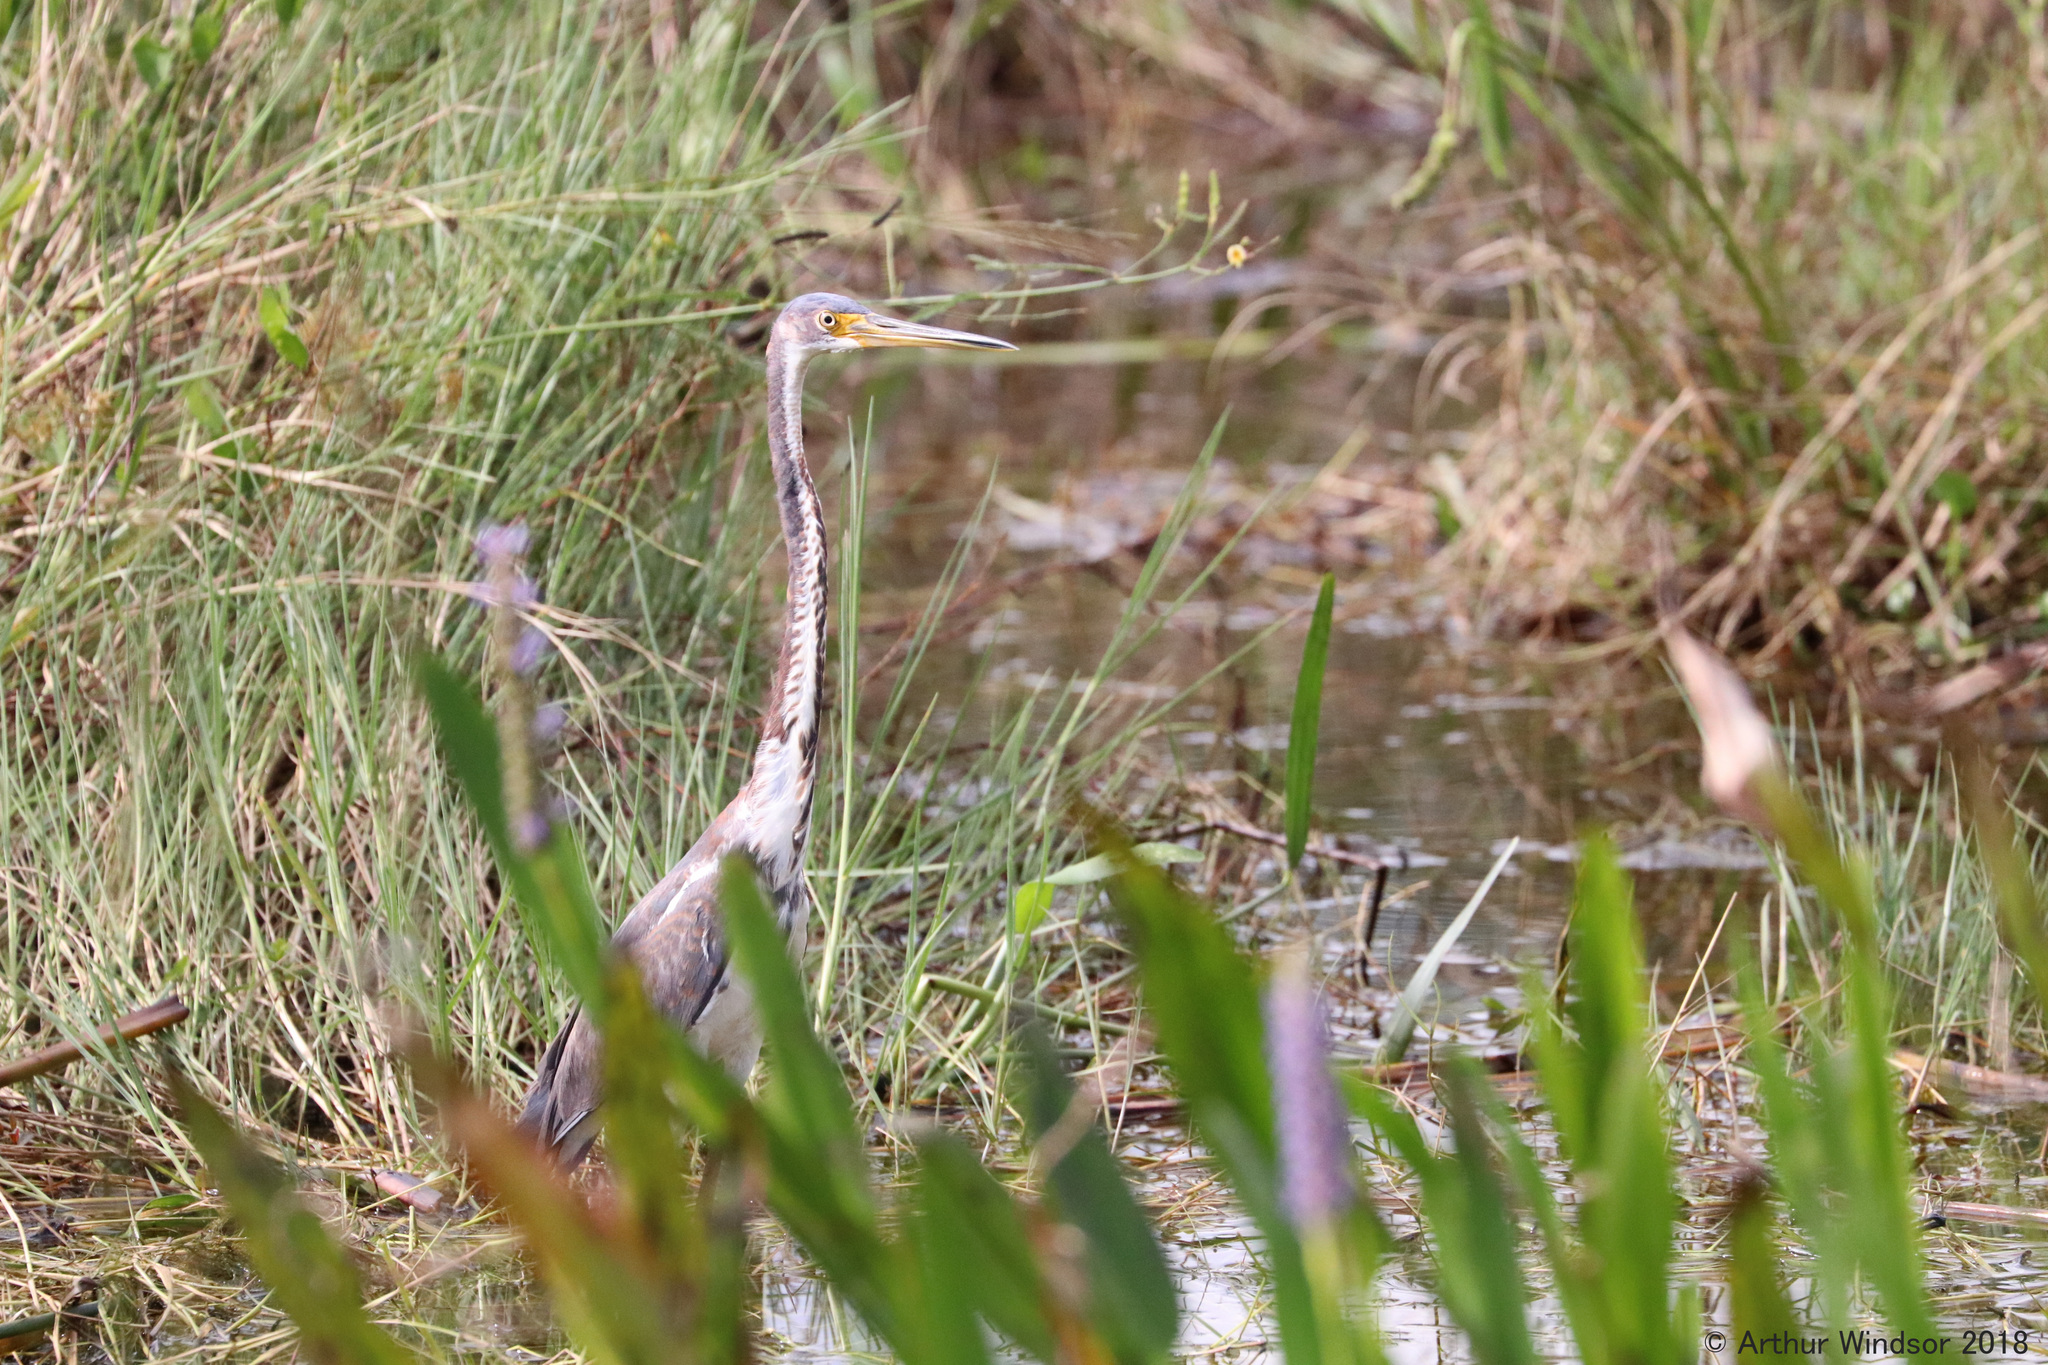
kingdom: Animalia
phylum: Chordata
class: Aves
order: Pelecaniformes
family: Ardeidae
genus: Egretta
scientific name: Egretta tricolor
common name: Tricolored heron
